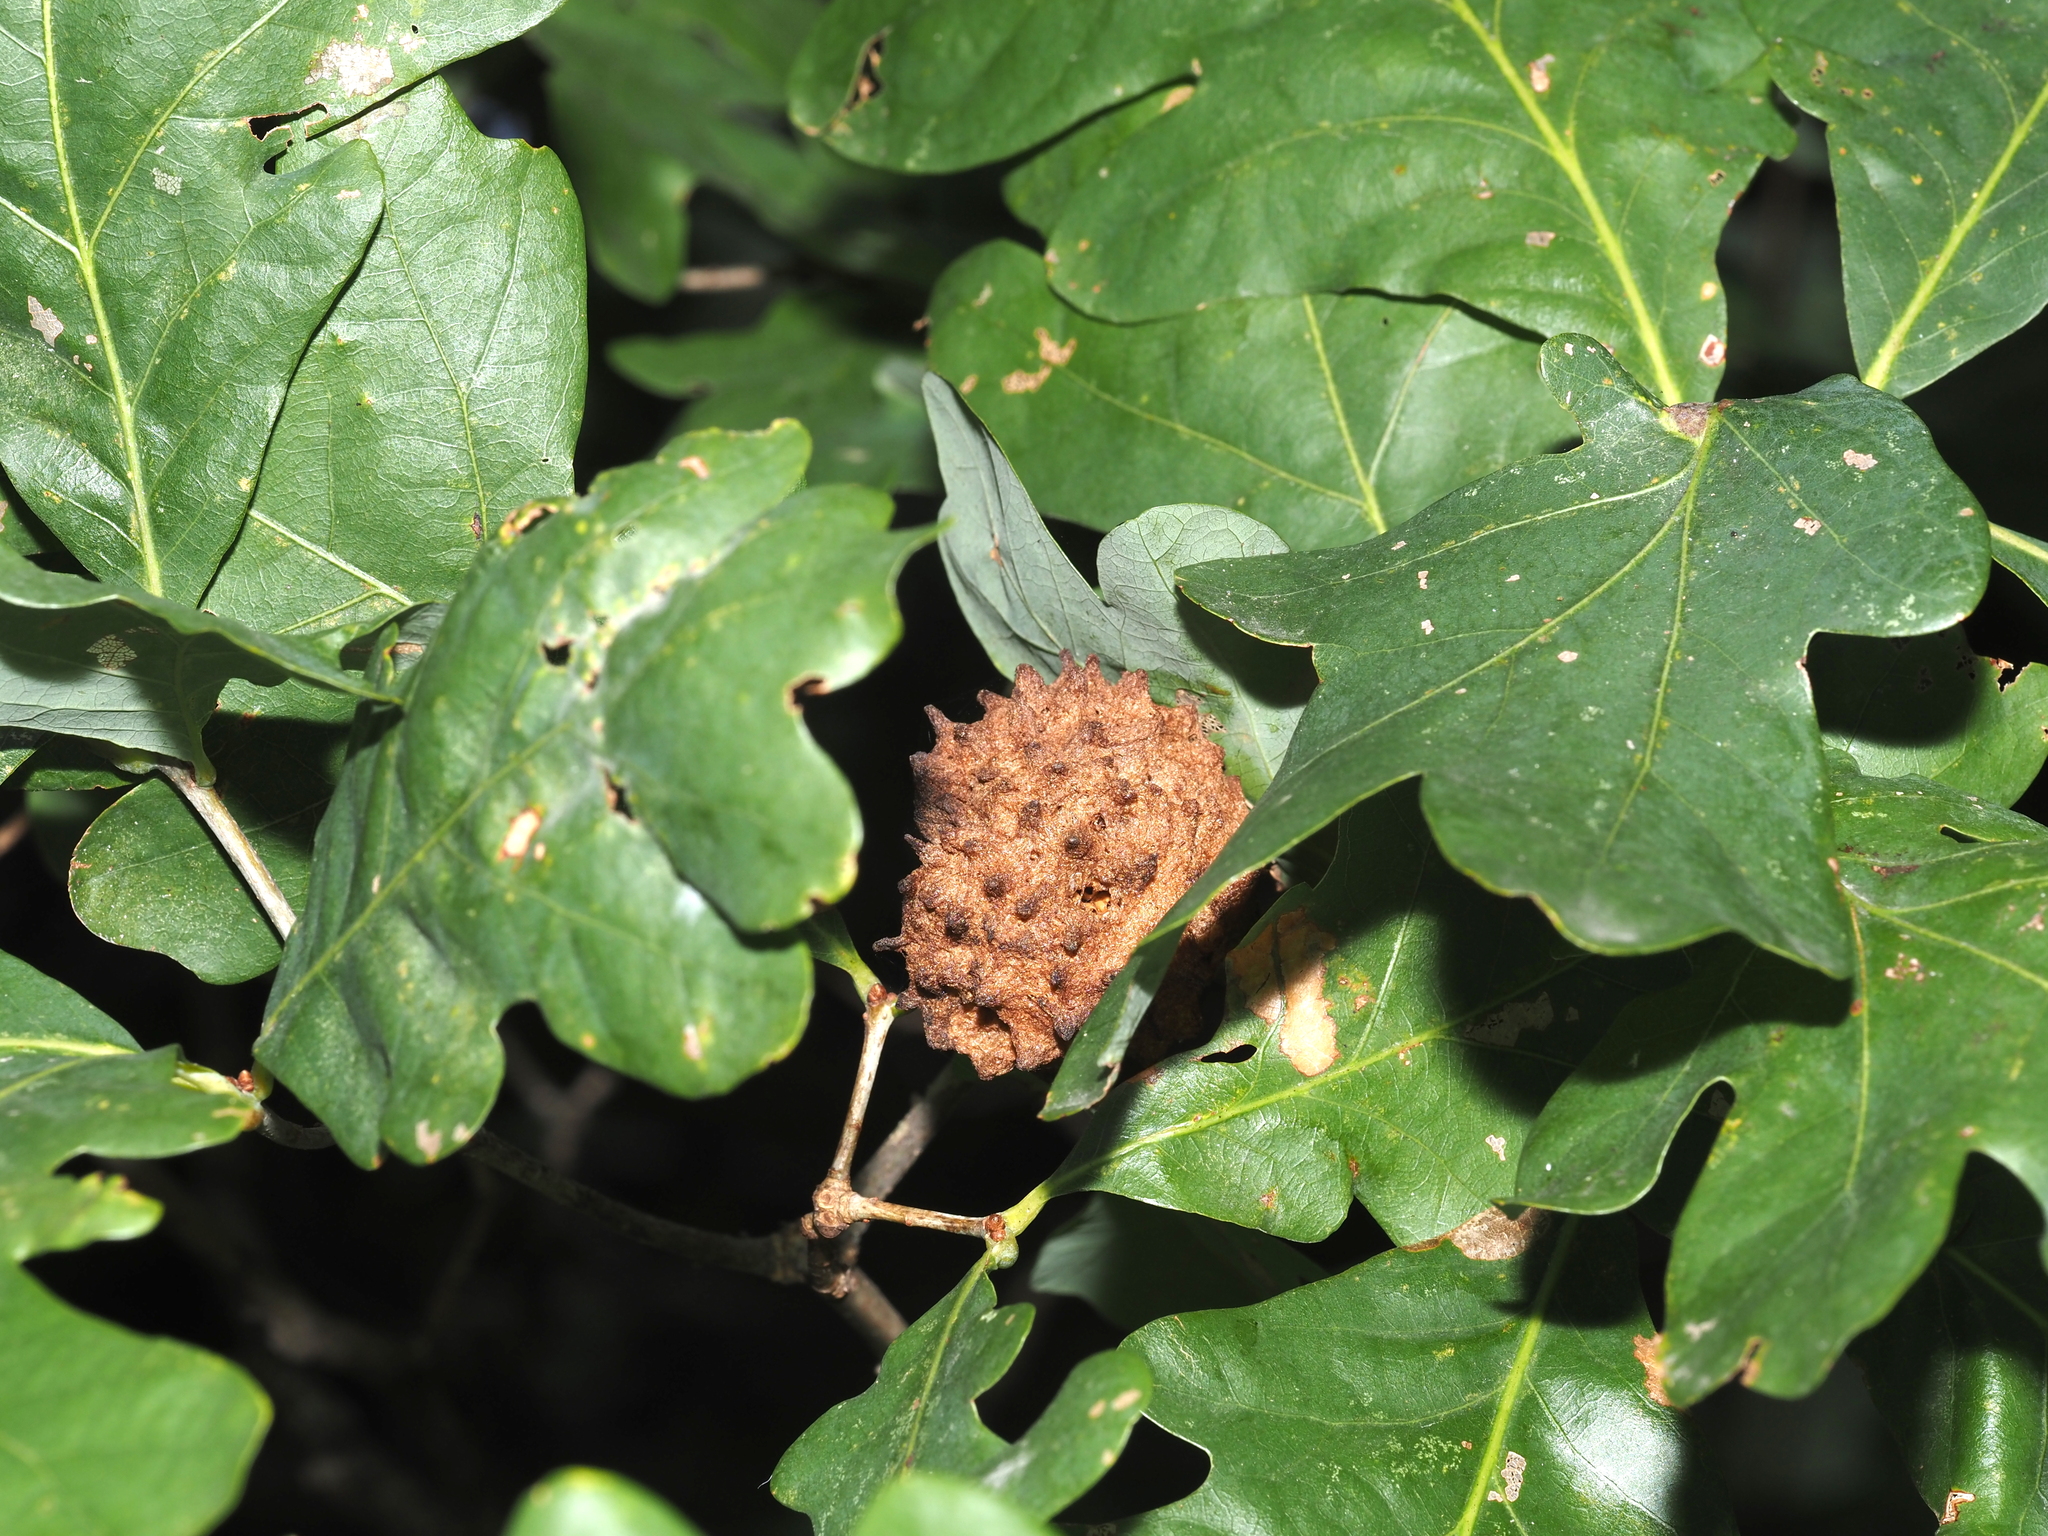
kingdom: Animalia
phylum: Arthropoda
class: Insecta
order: Hymenoptera
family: Cynipidae
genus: Callirhytis
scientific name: Callirhytis
